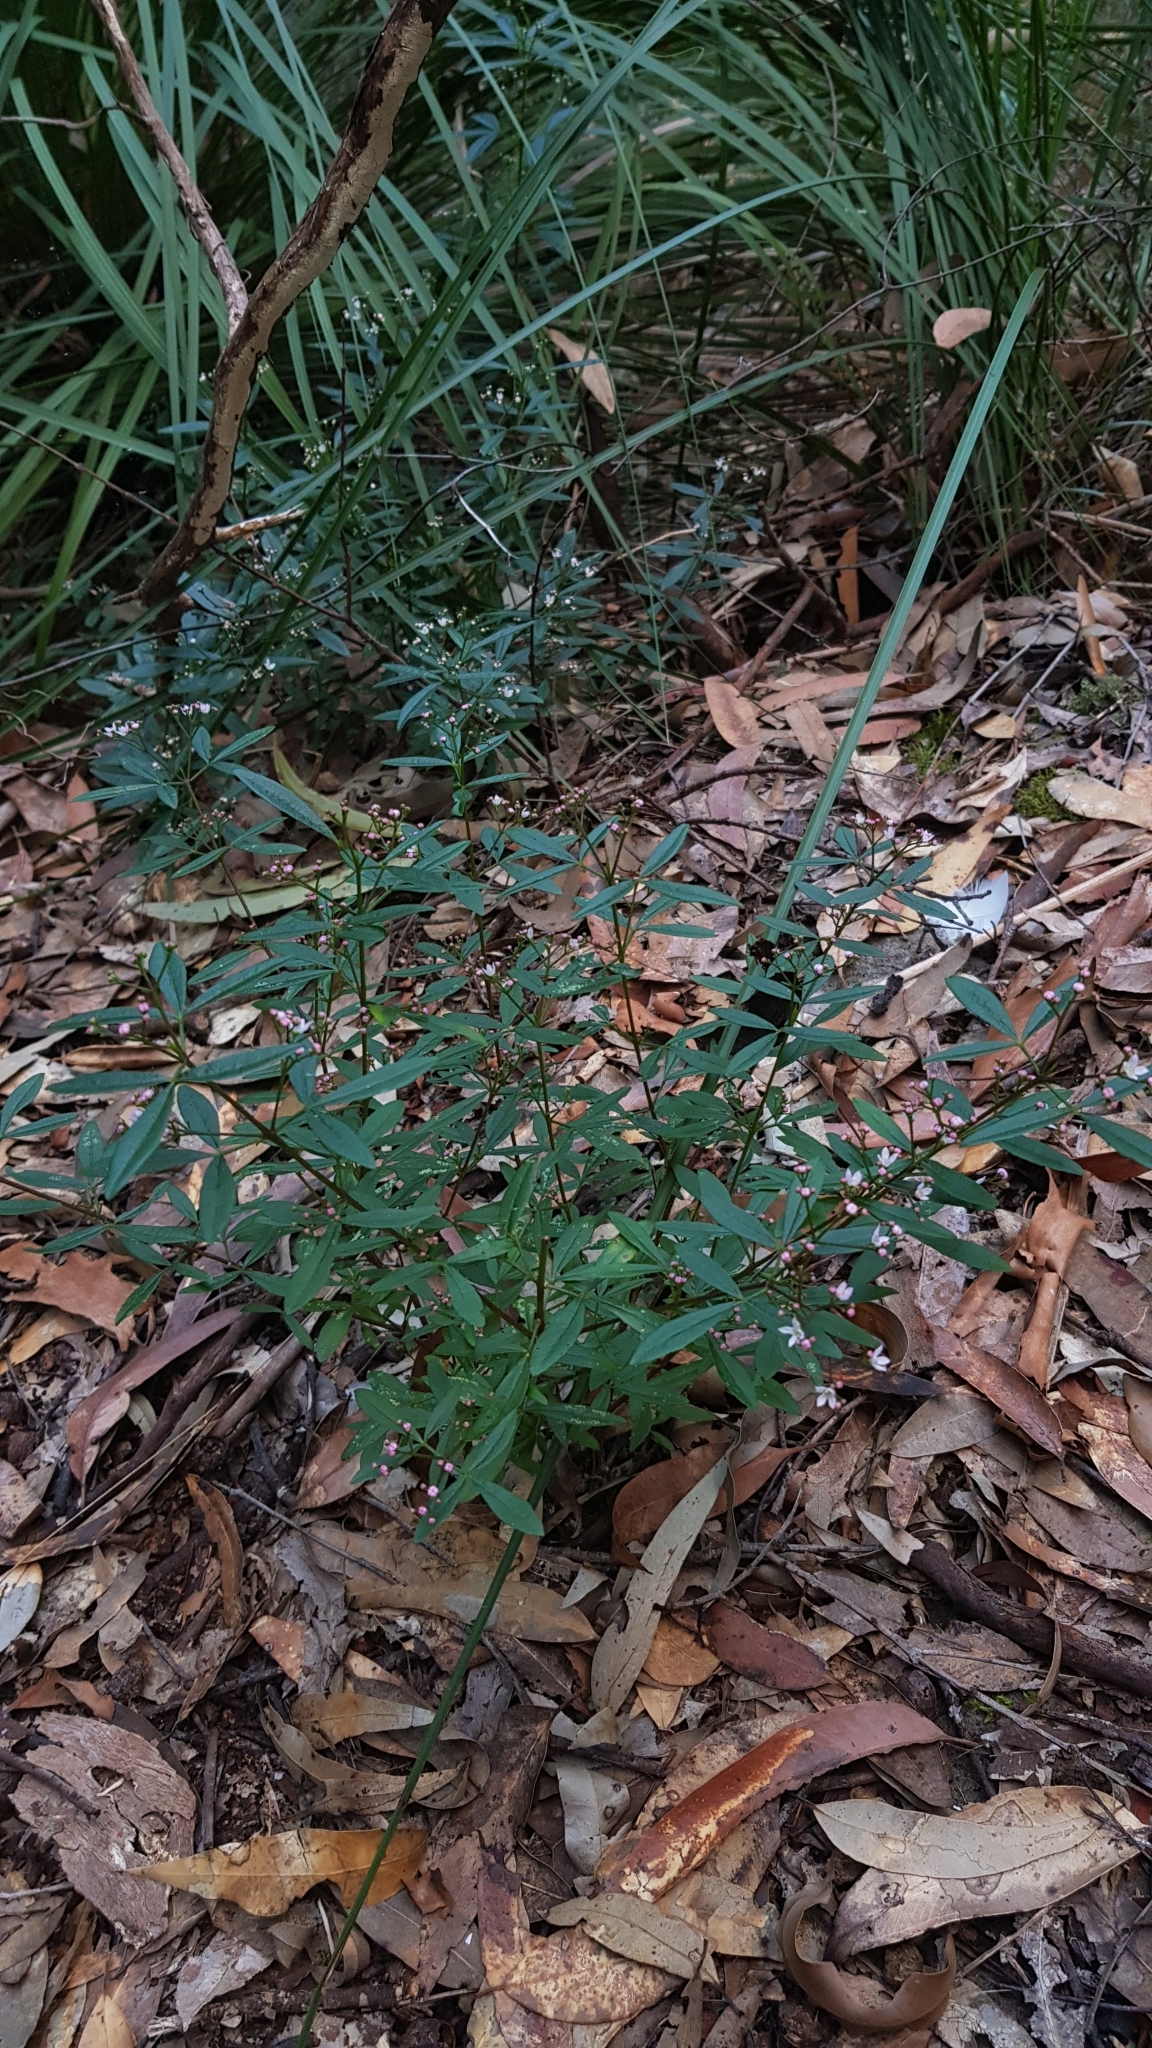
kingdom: Plantae
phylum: Tracheophyta
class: Magnoliopsida
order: Sapindales
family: Rutaceae
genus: Zieria
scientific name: Zieria smithii
